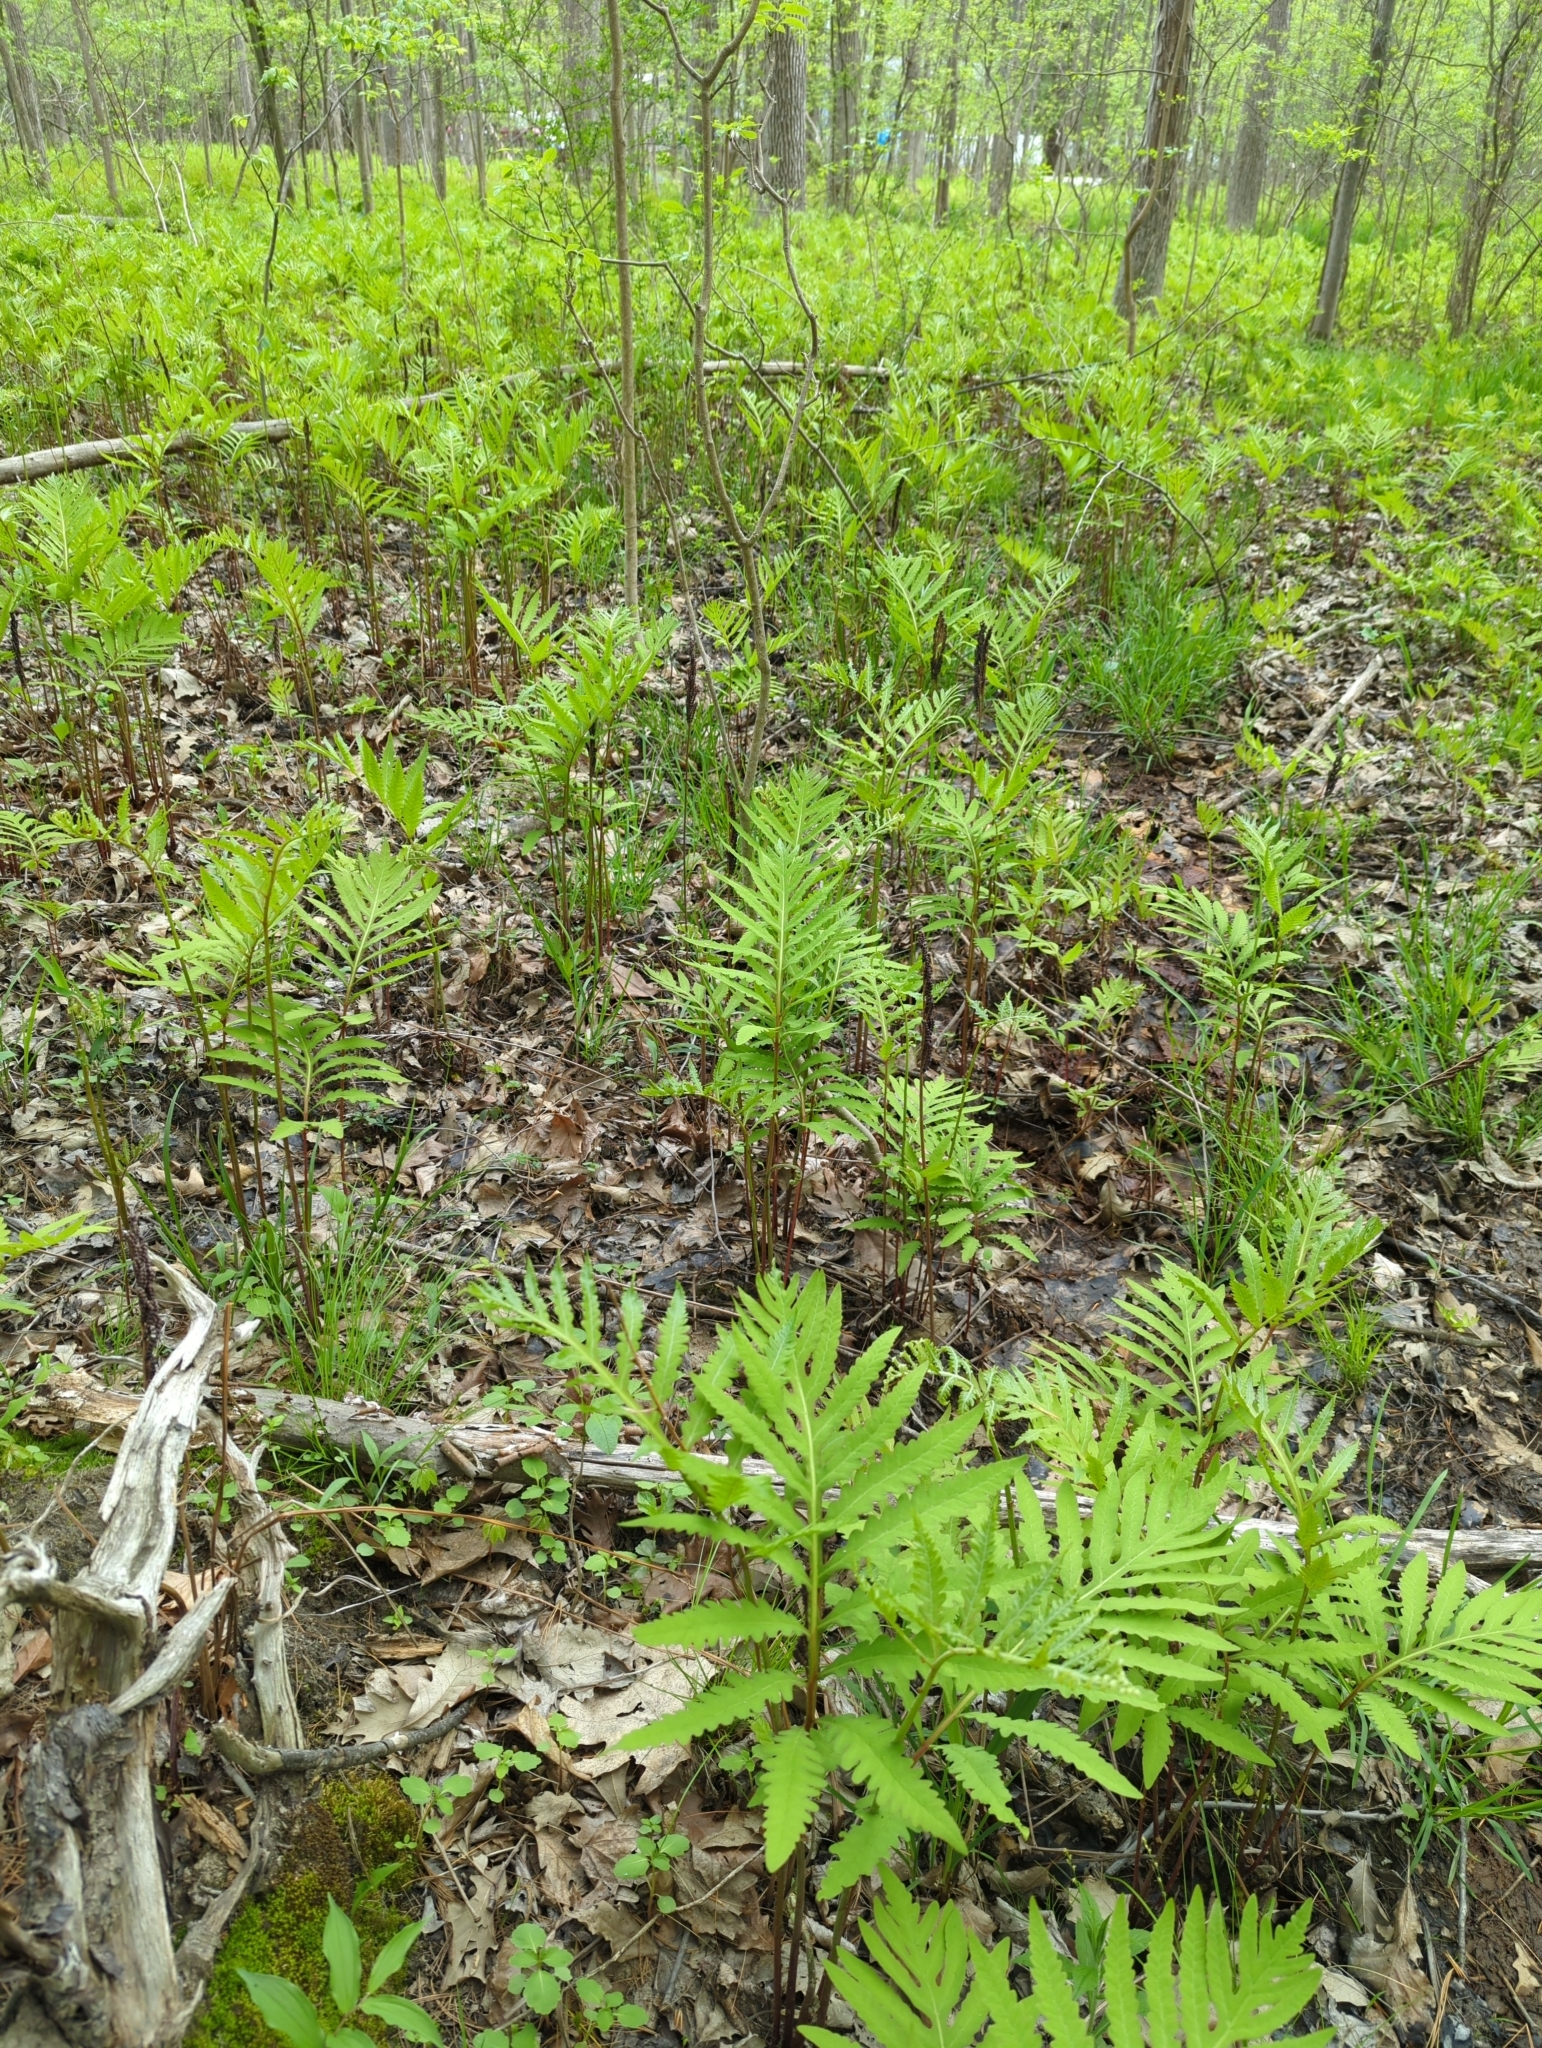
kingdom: Plantae
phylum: Tracheophyta
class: Polypodiopsida
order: Polypodiales
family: Onocleaceae
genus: Onoclea
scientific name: Onoclea sensibilis
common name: Sensitive fern
